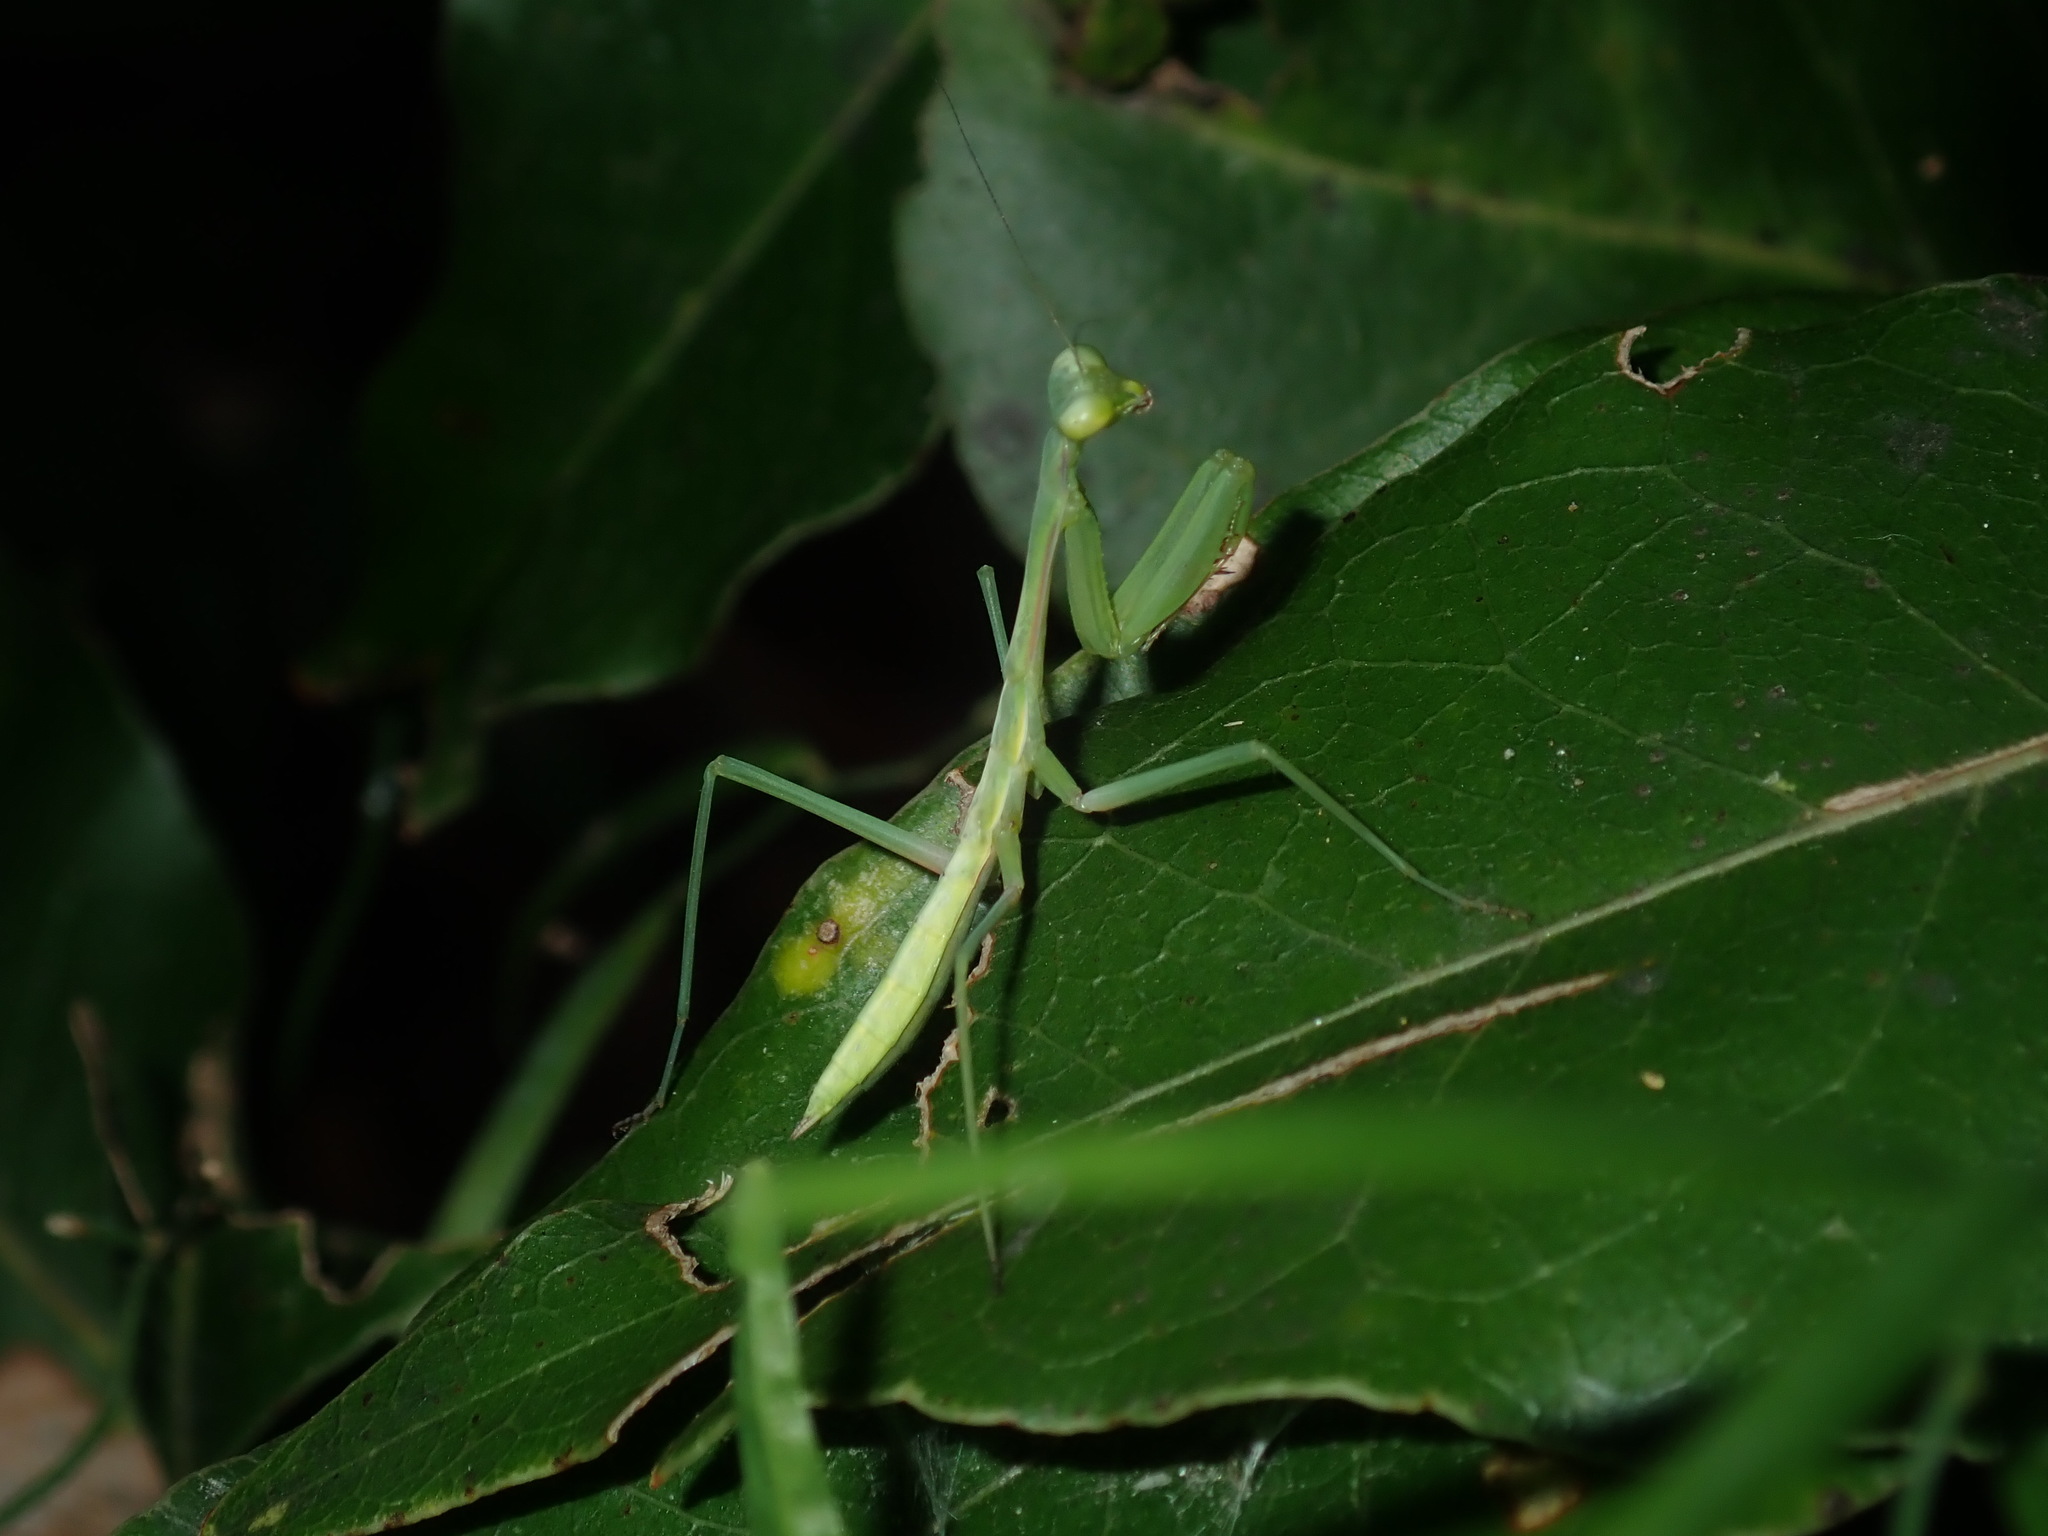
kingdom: Animalia
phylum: Arthropoda
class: Insecta
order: Mantodea
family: Mantidae
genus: Pseudomantis
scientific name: Pseudomantis albofimbriata
